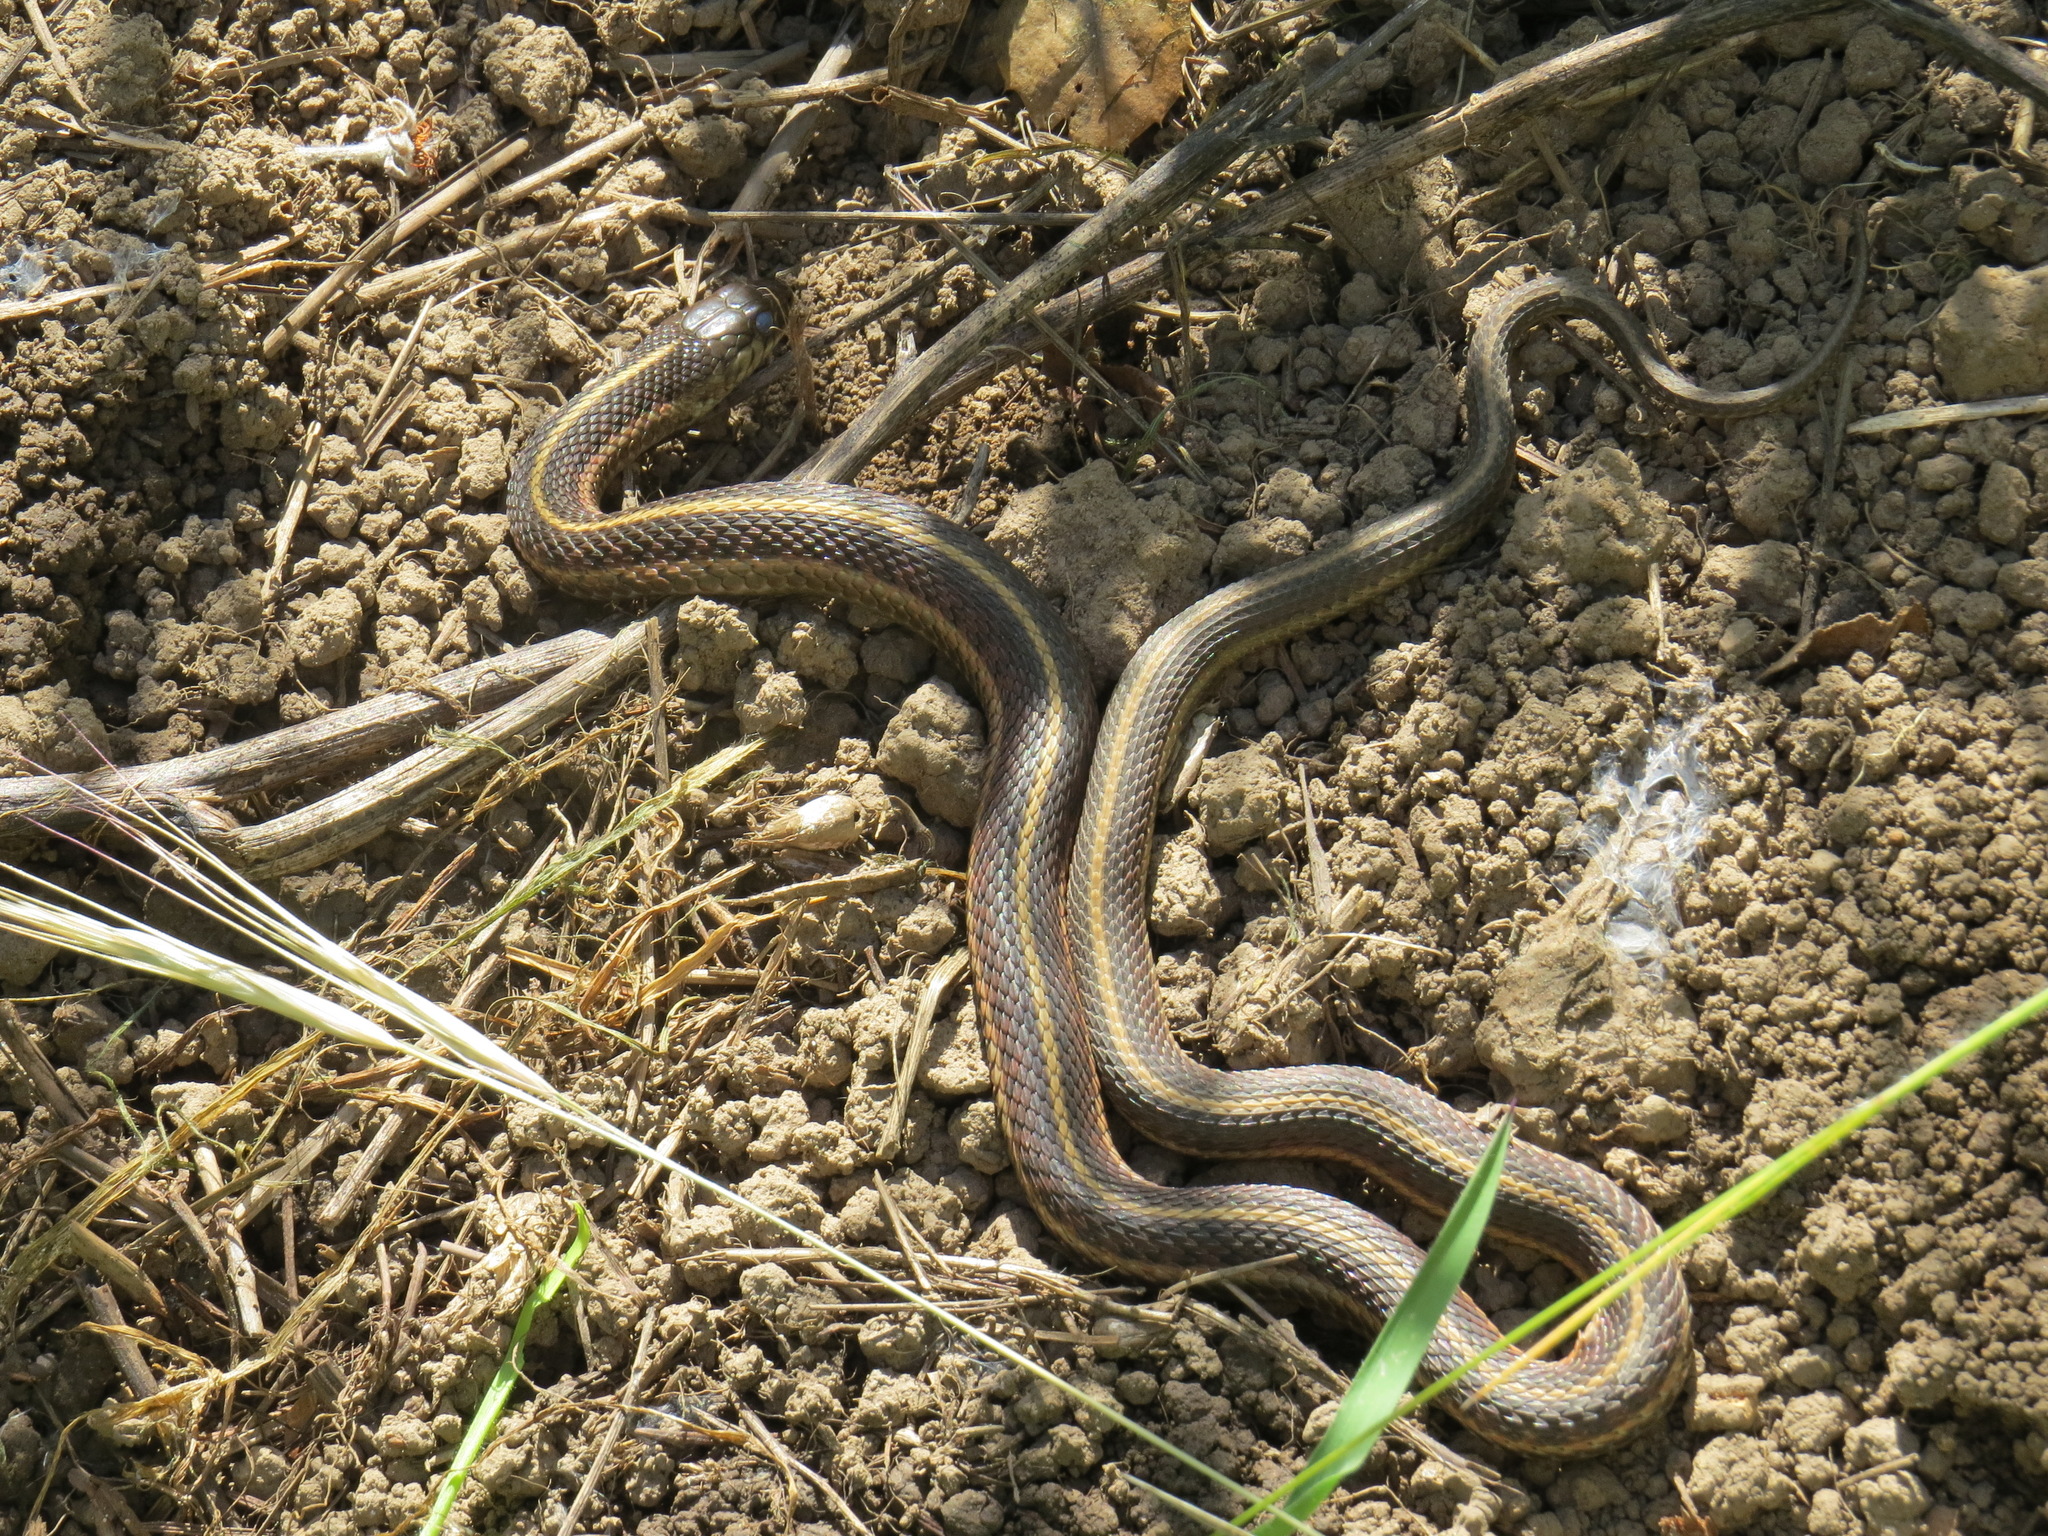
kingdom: Animalia
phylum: Chordata
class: Squamata
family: Colubridae
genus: Thamnophis
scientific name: Thamnophis elegans
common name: Western terrestrial garter snake
